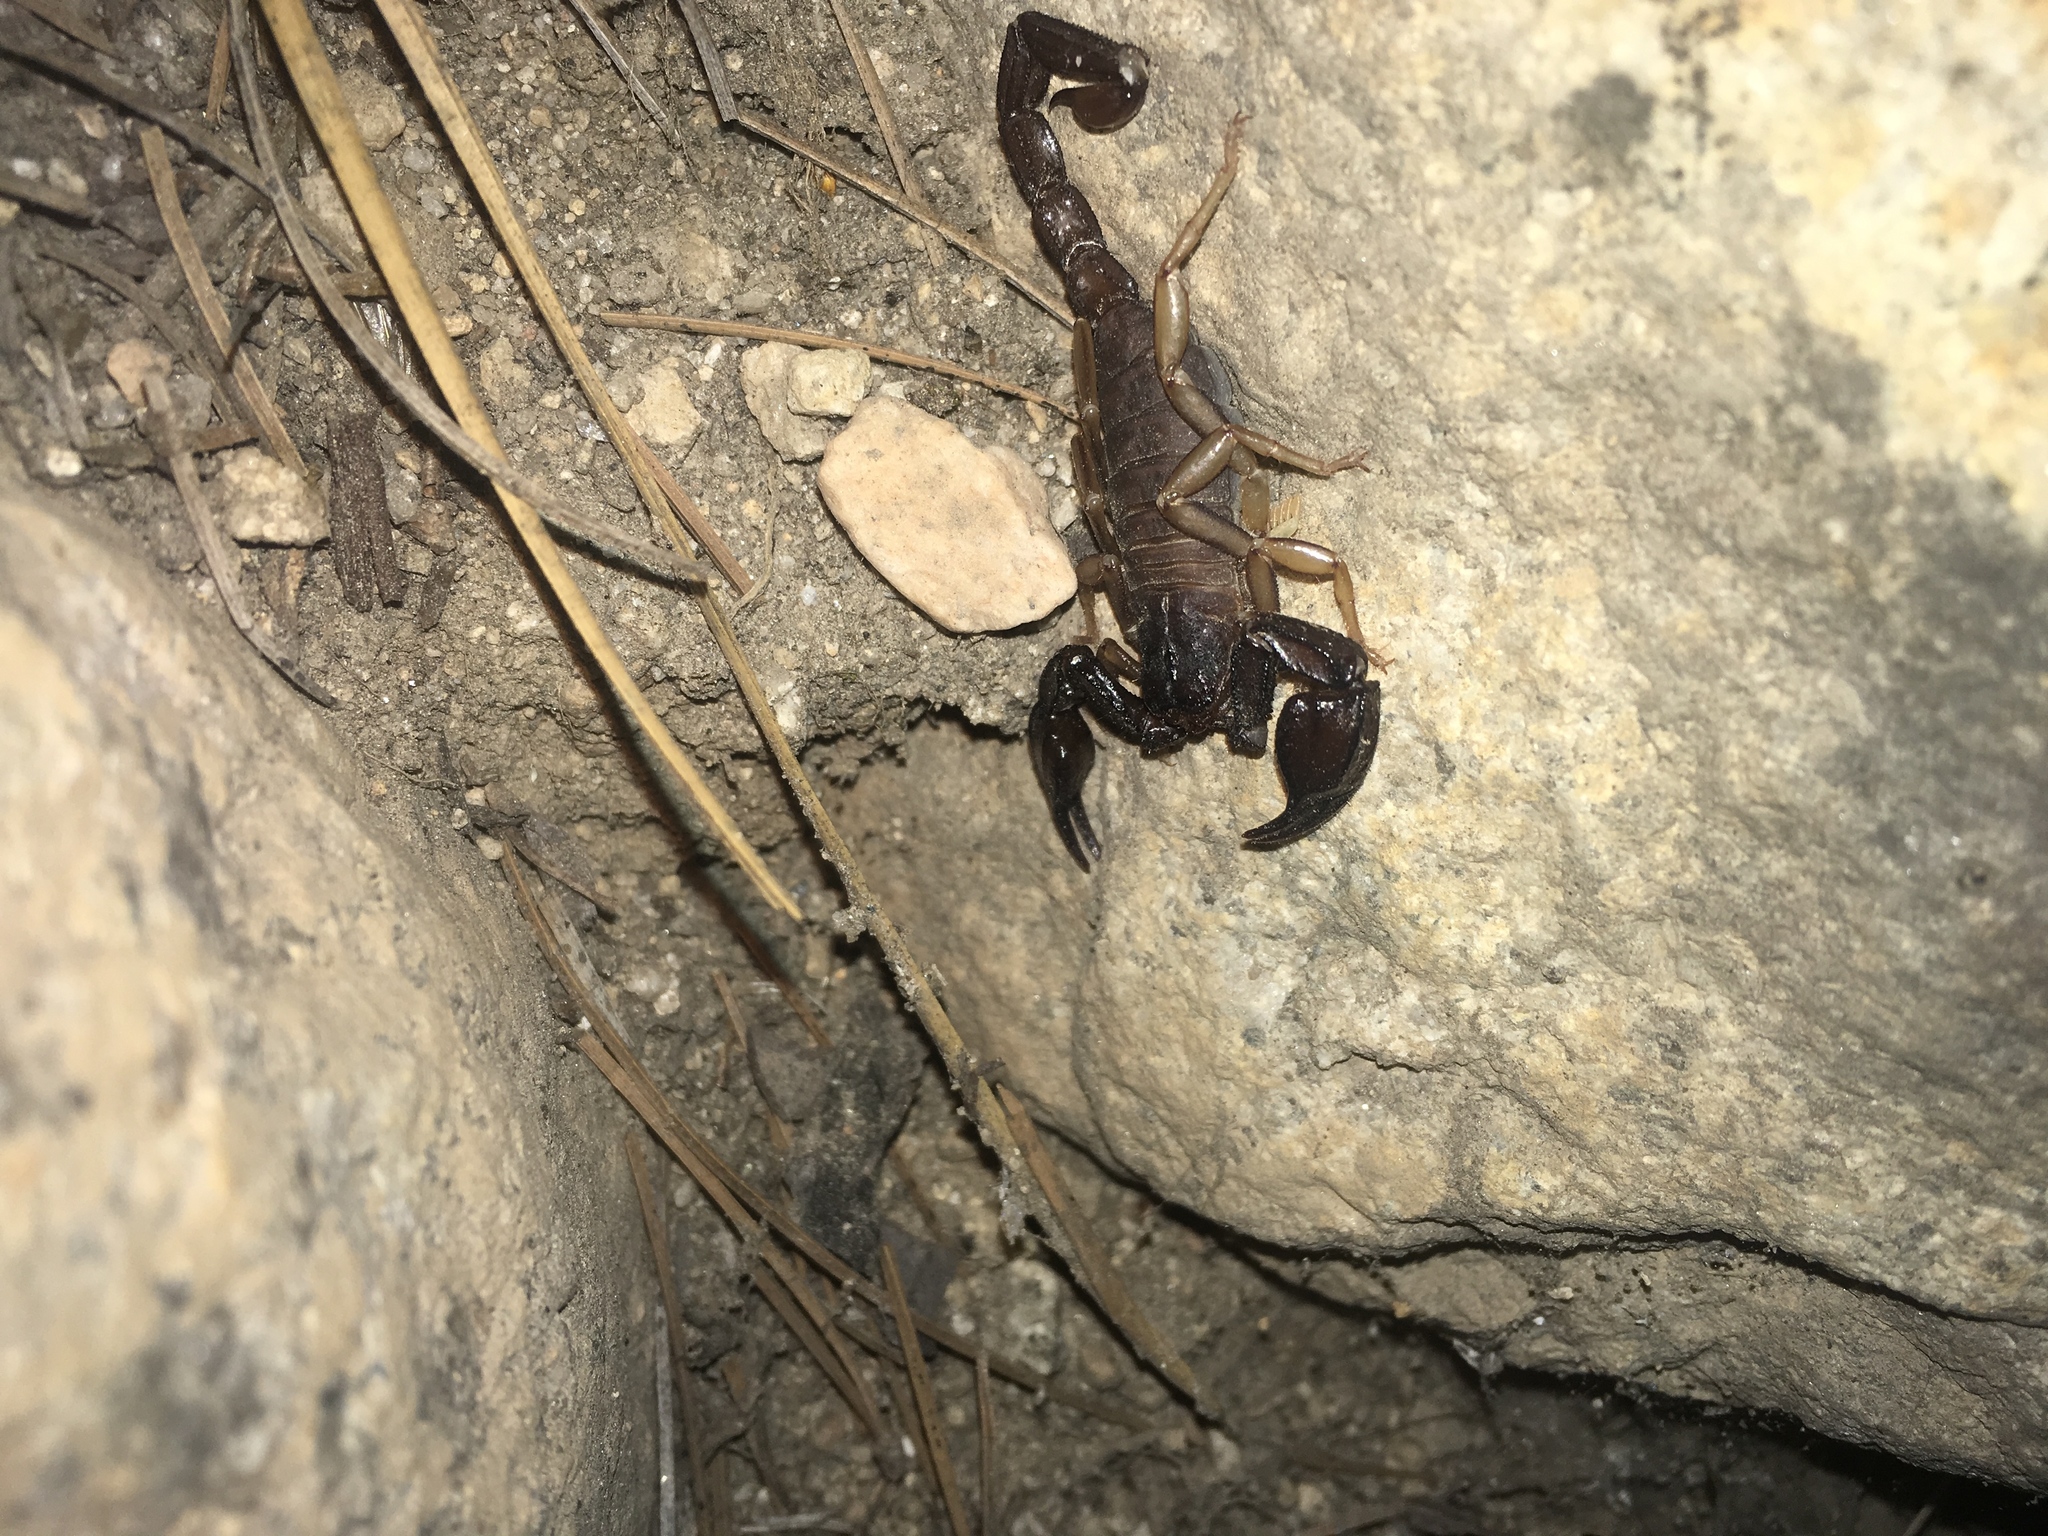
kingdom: Animalia
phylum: Arthropoda
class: Arachnida
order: Scorpiones
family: Chactidae
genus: Uroctonus
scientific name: Uroctonus mordax
